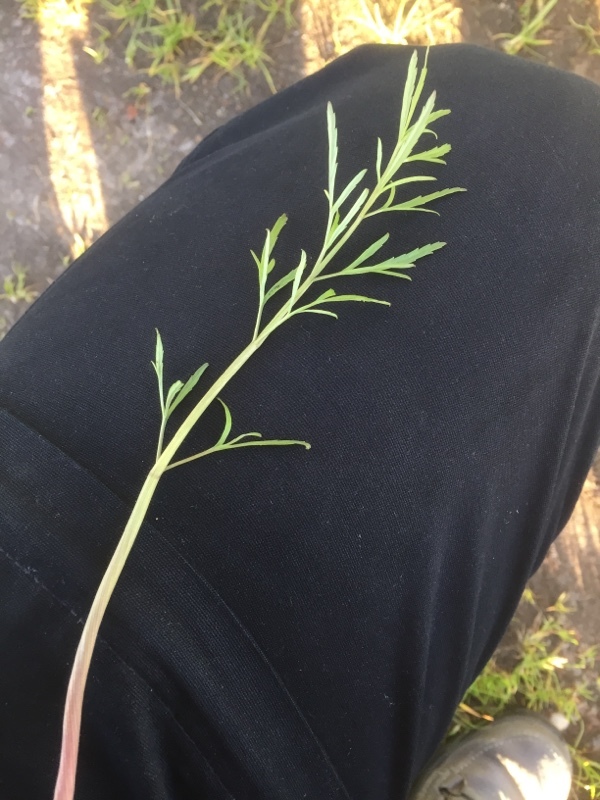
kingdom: Plantae
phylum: Tracheophyta
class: Magnoliopsida
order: Apiales
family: Apiaceae
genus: Cicuta
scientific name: Cicuta virosa
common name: Cowbane
